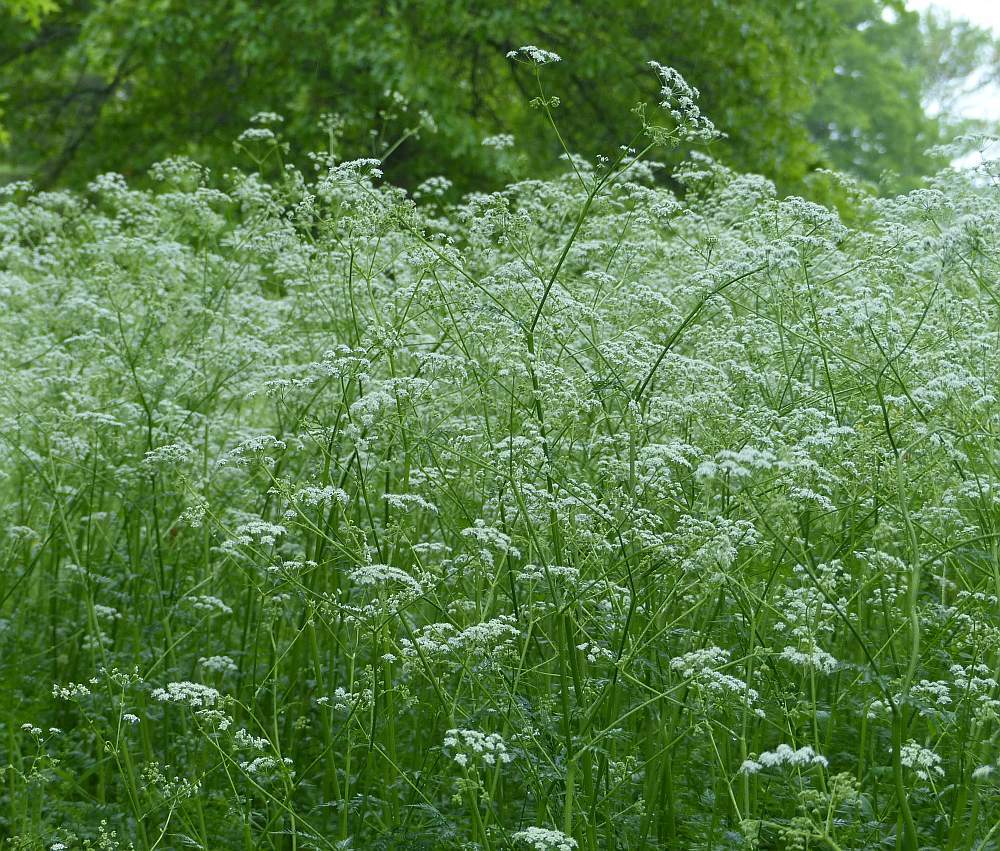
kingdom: Plantae
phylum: Tracheophyta
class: Magnoliopsida
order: Apiales
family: Apiaceae
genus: Anthriscus
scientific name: Anthriscus sylvestris
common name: Cow parsley
